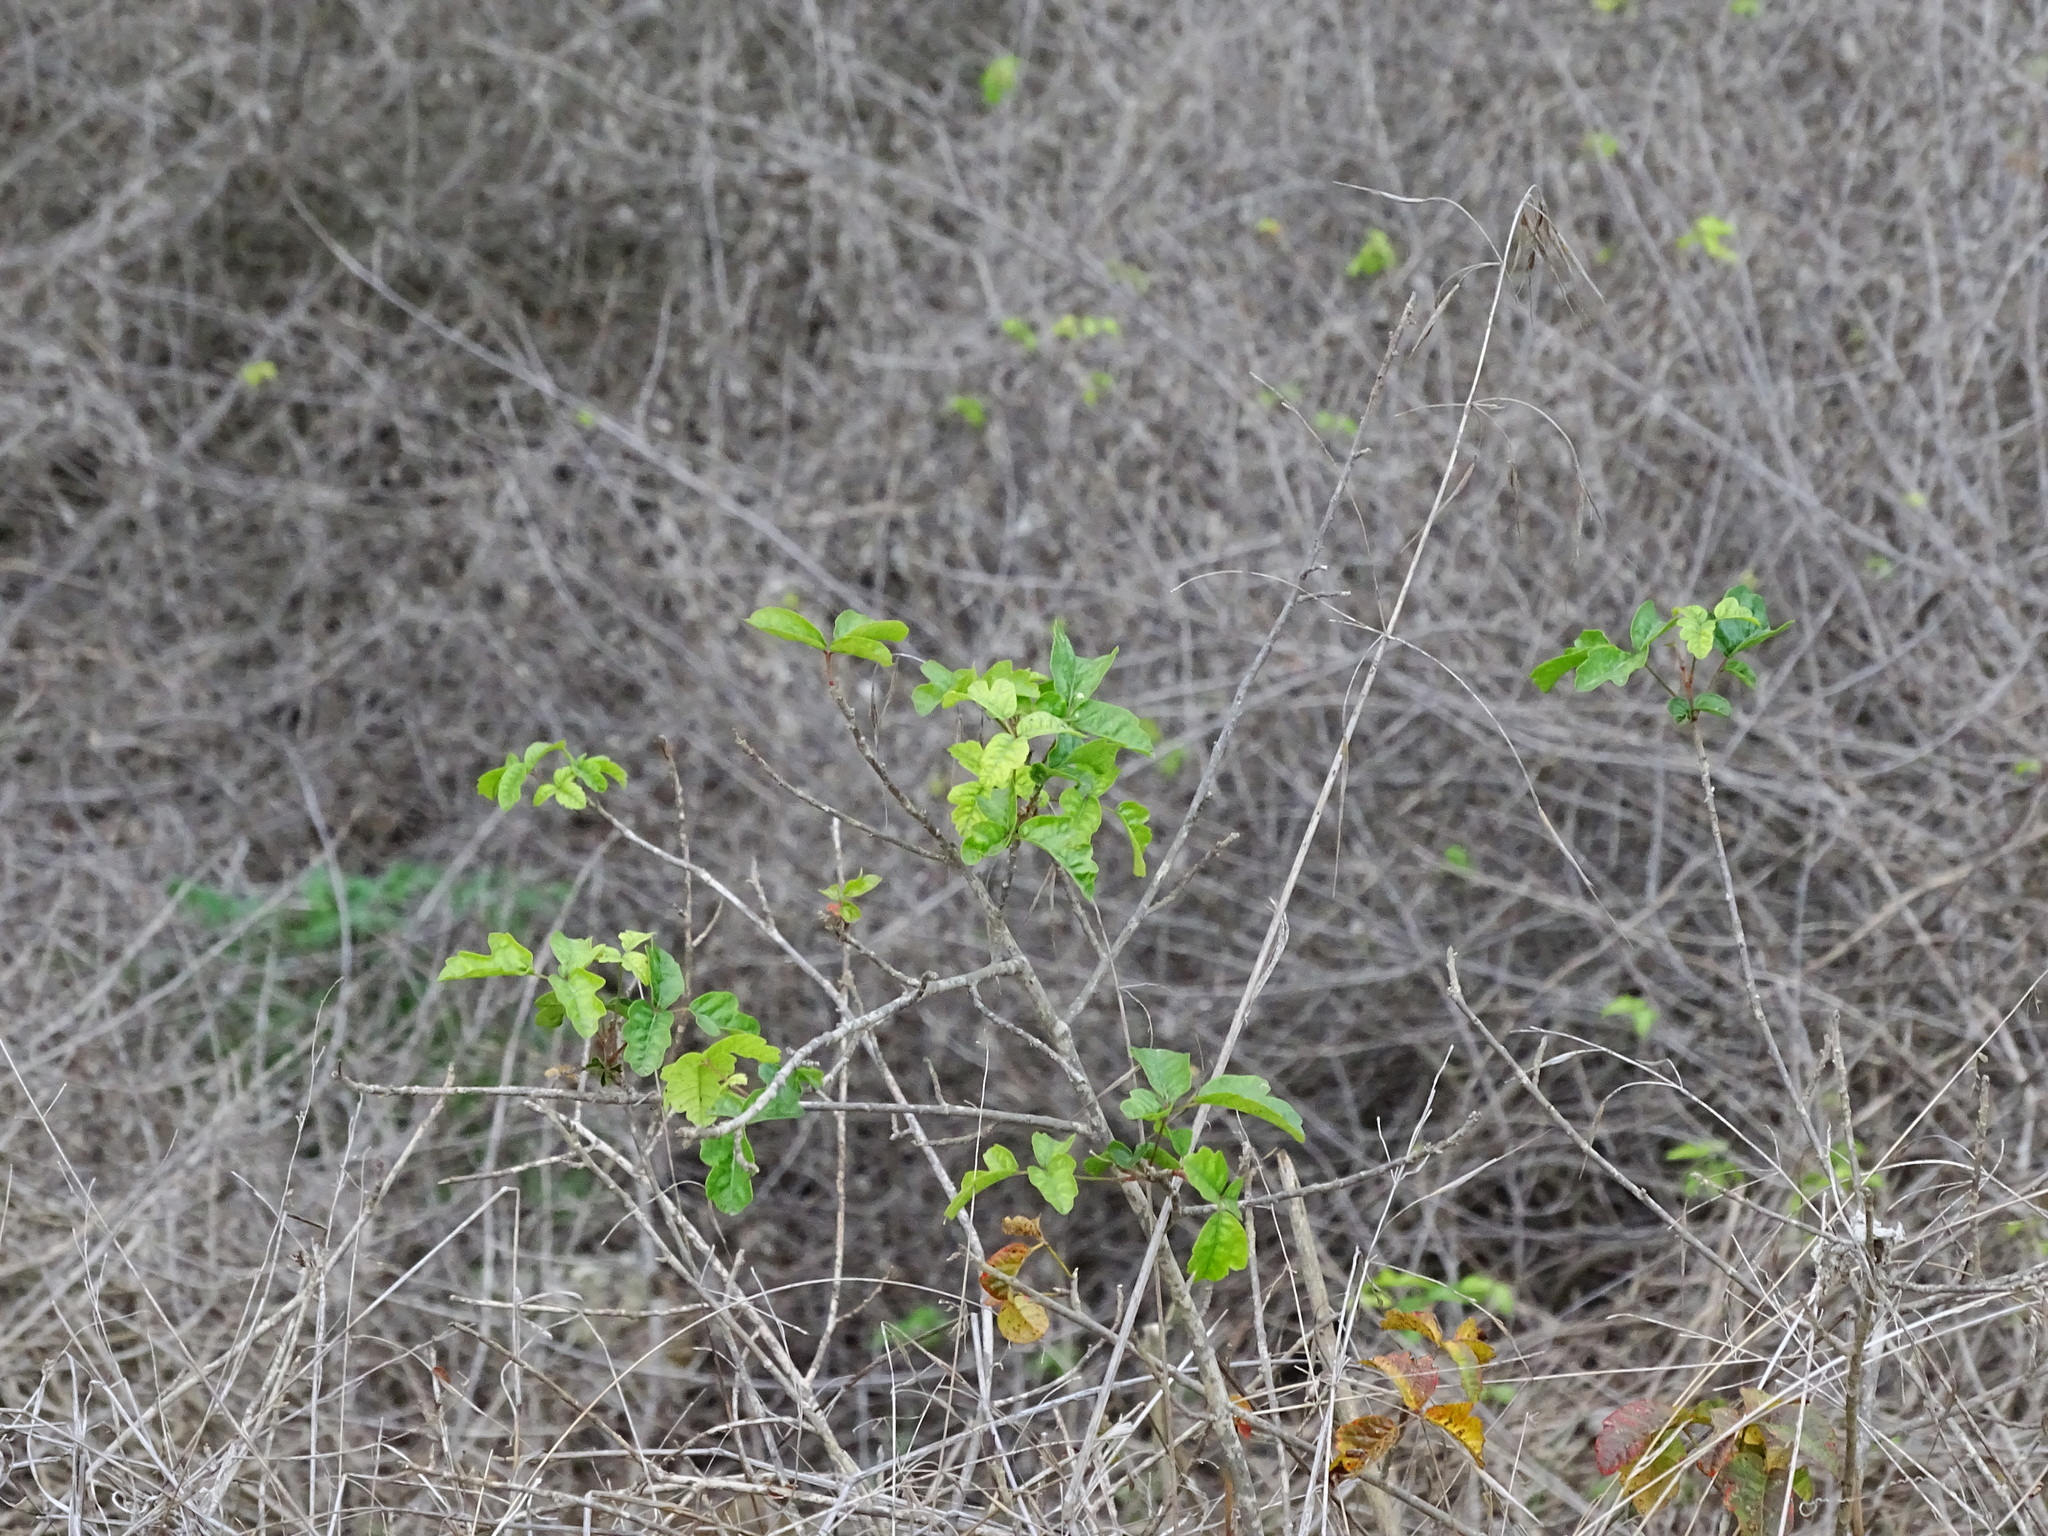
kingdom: Plantae
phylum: Tracheophyta
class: Magnoliopsida
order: Sapindales
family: Anacardiaceae
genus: Toxicodendron
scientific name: Toxicodendron diversilobum
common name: Pacific poison-oak
